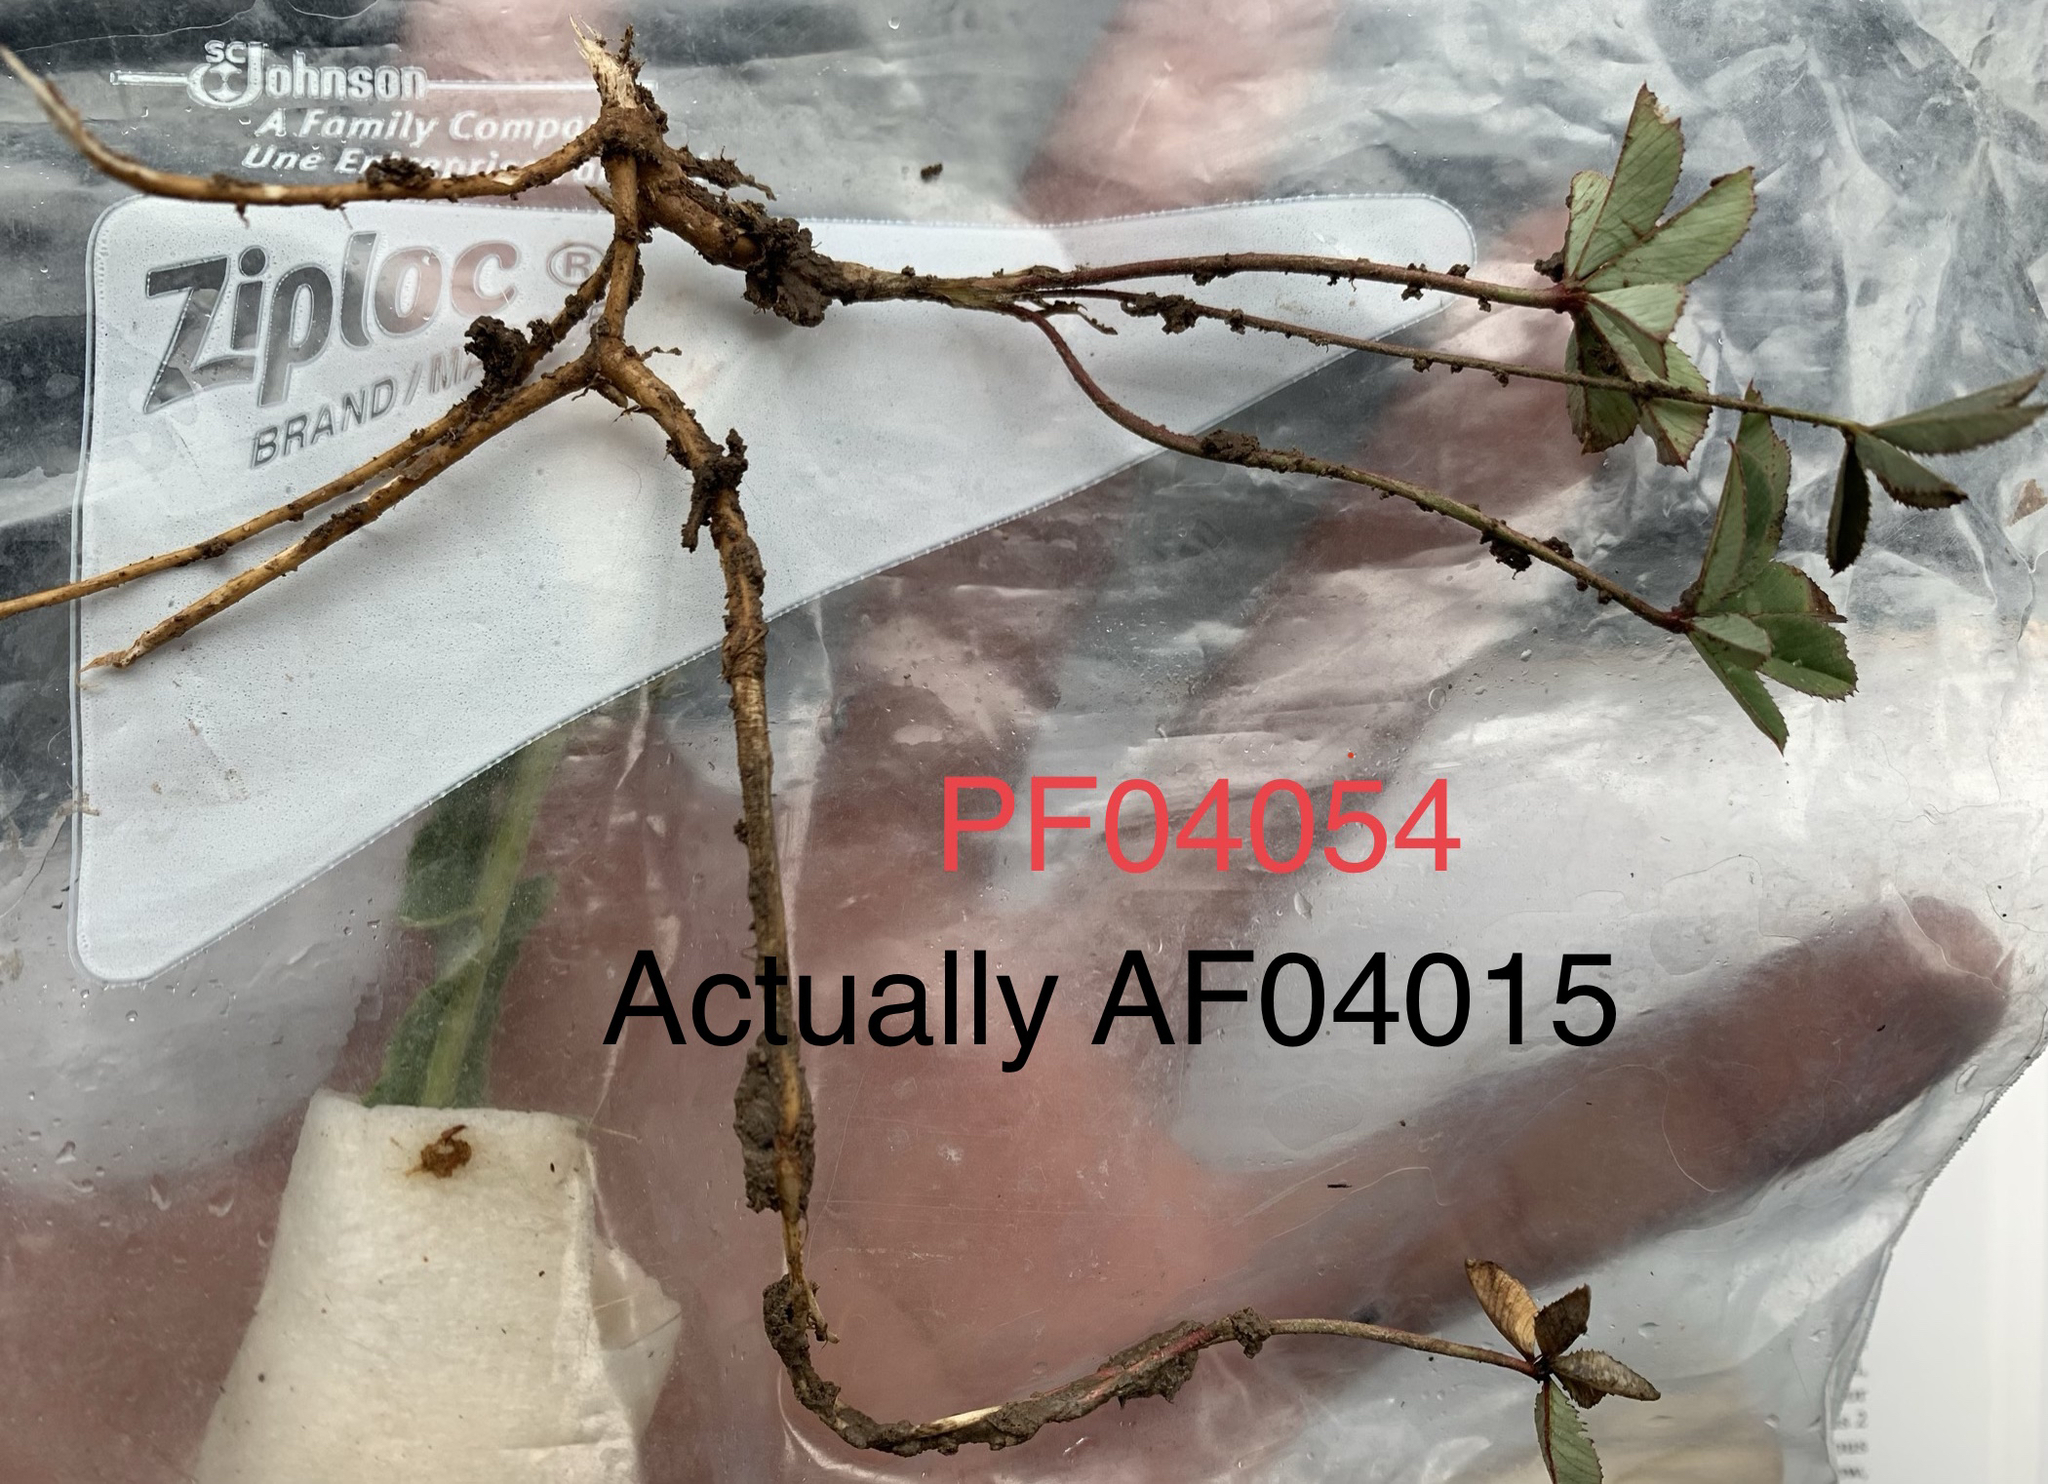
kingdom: Plantae
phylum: Tracheophyta
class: Magnoliopsida
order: Fabales
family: Fabaceae
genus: Trifolium
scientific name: Trifolium macrocephalum
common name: Large-head clover
